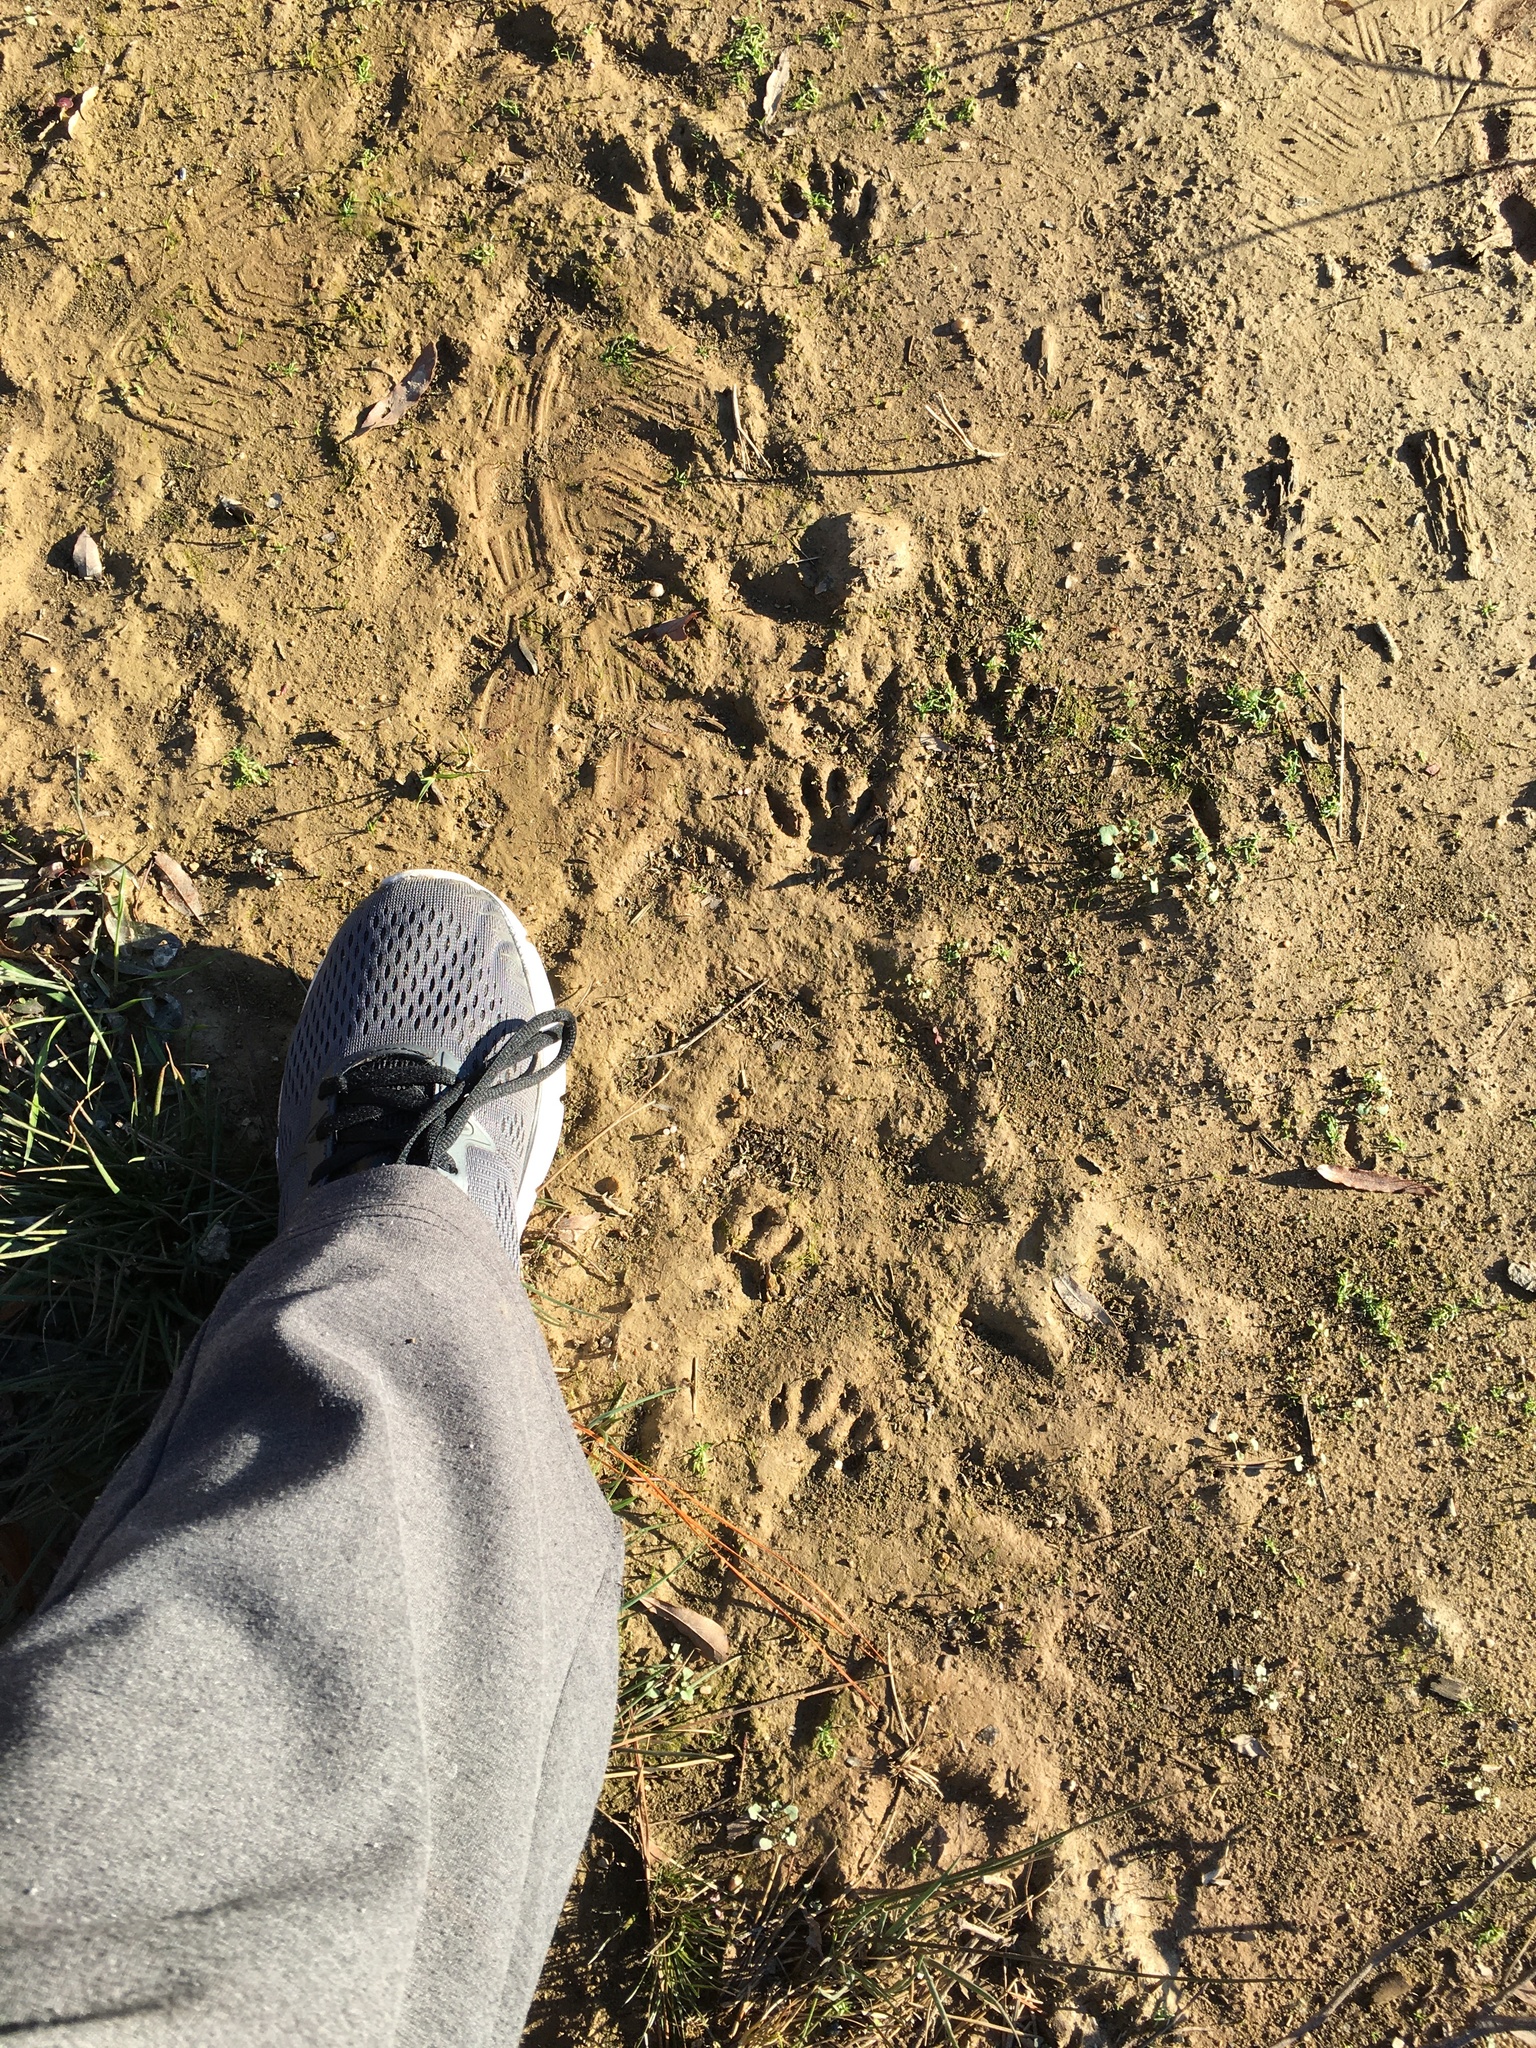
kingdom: Animalia
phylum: Chordata
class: Mammalia
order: Carnivora
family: Procyonidae
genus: Procyon
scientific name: Procyon lotor
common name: Raccoon
